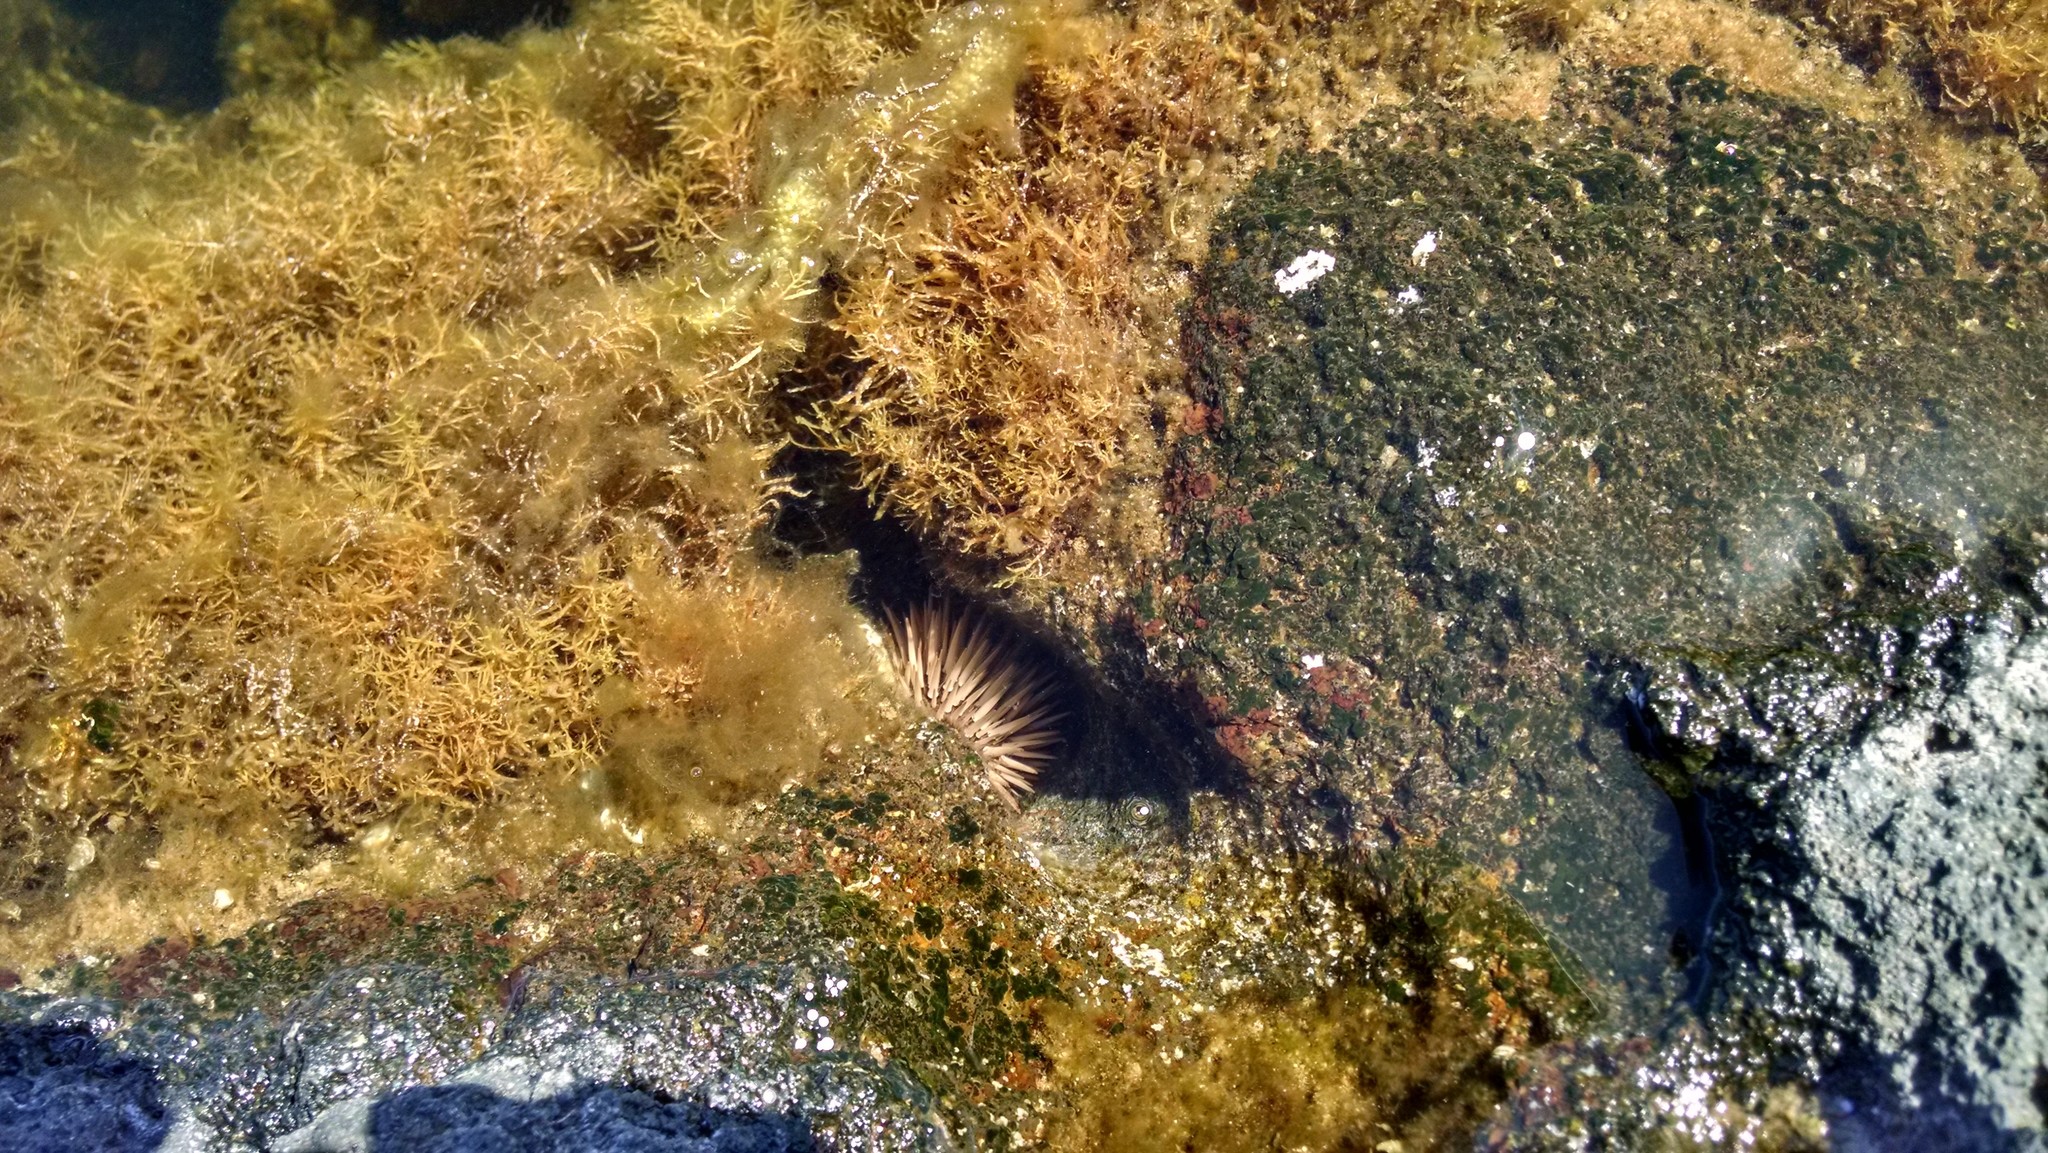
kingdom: Animalia
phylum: Echinodermata
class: Echinoidea
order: Camarodonta
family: Echinometridae
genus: Echinometra
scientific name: Echinometra mathaei
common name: Rock-boring urchin
